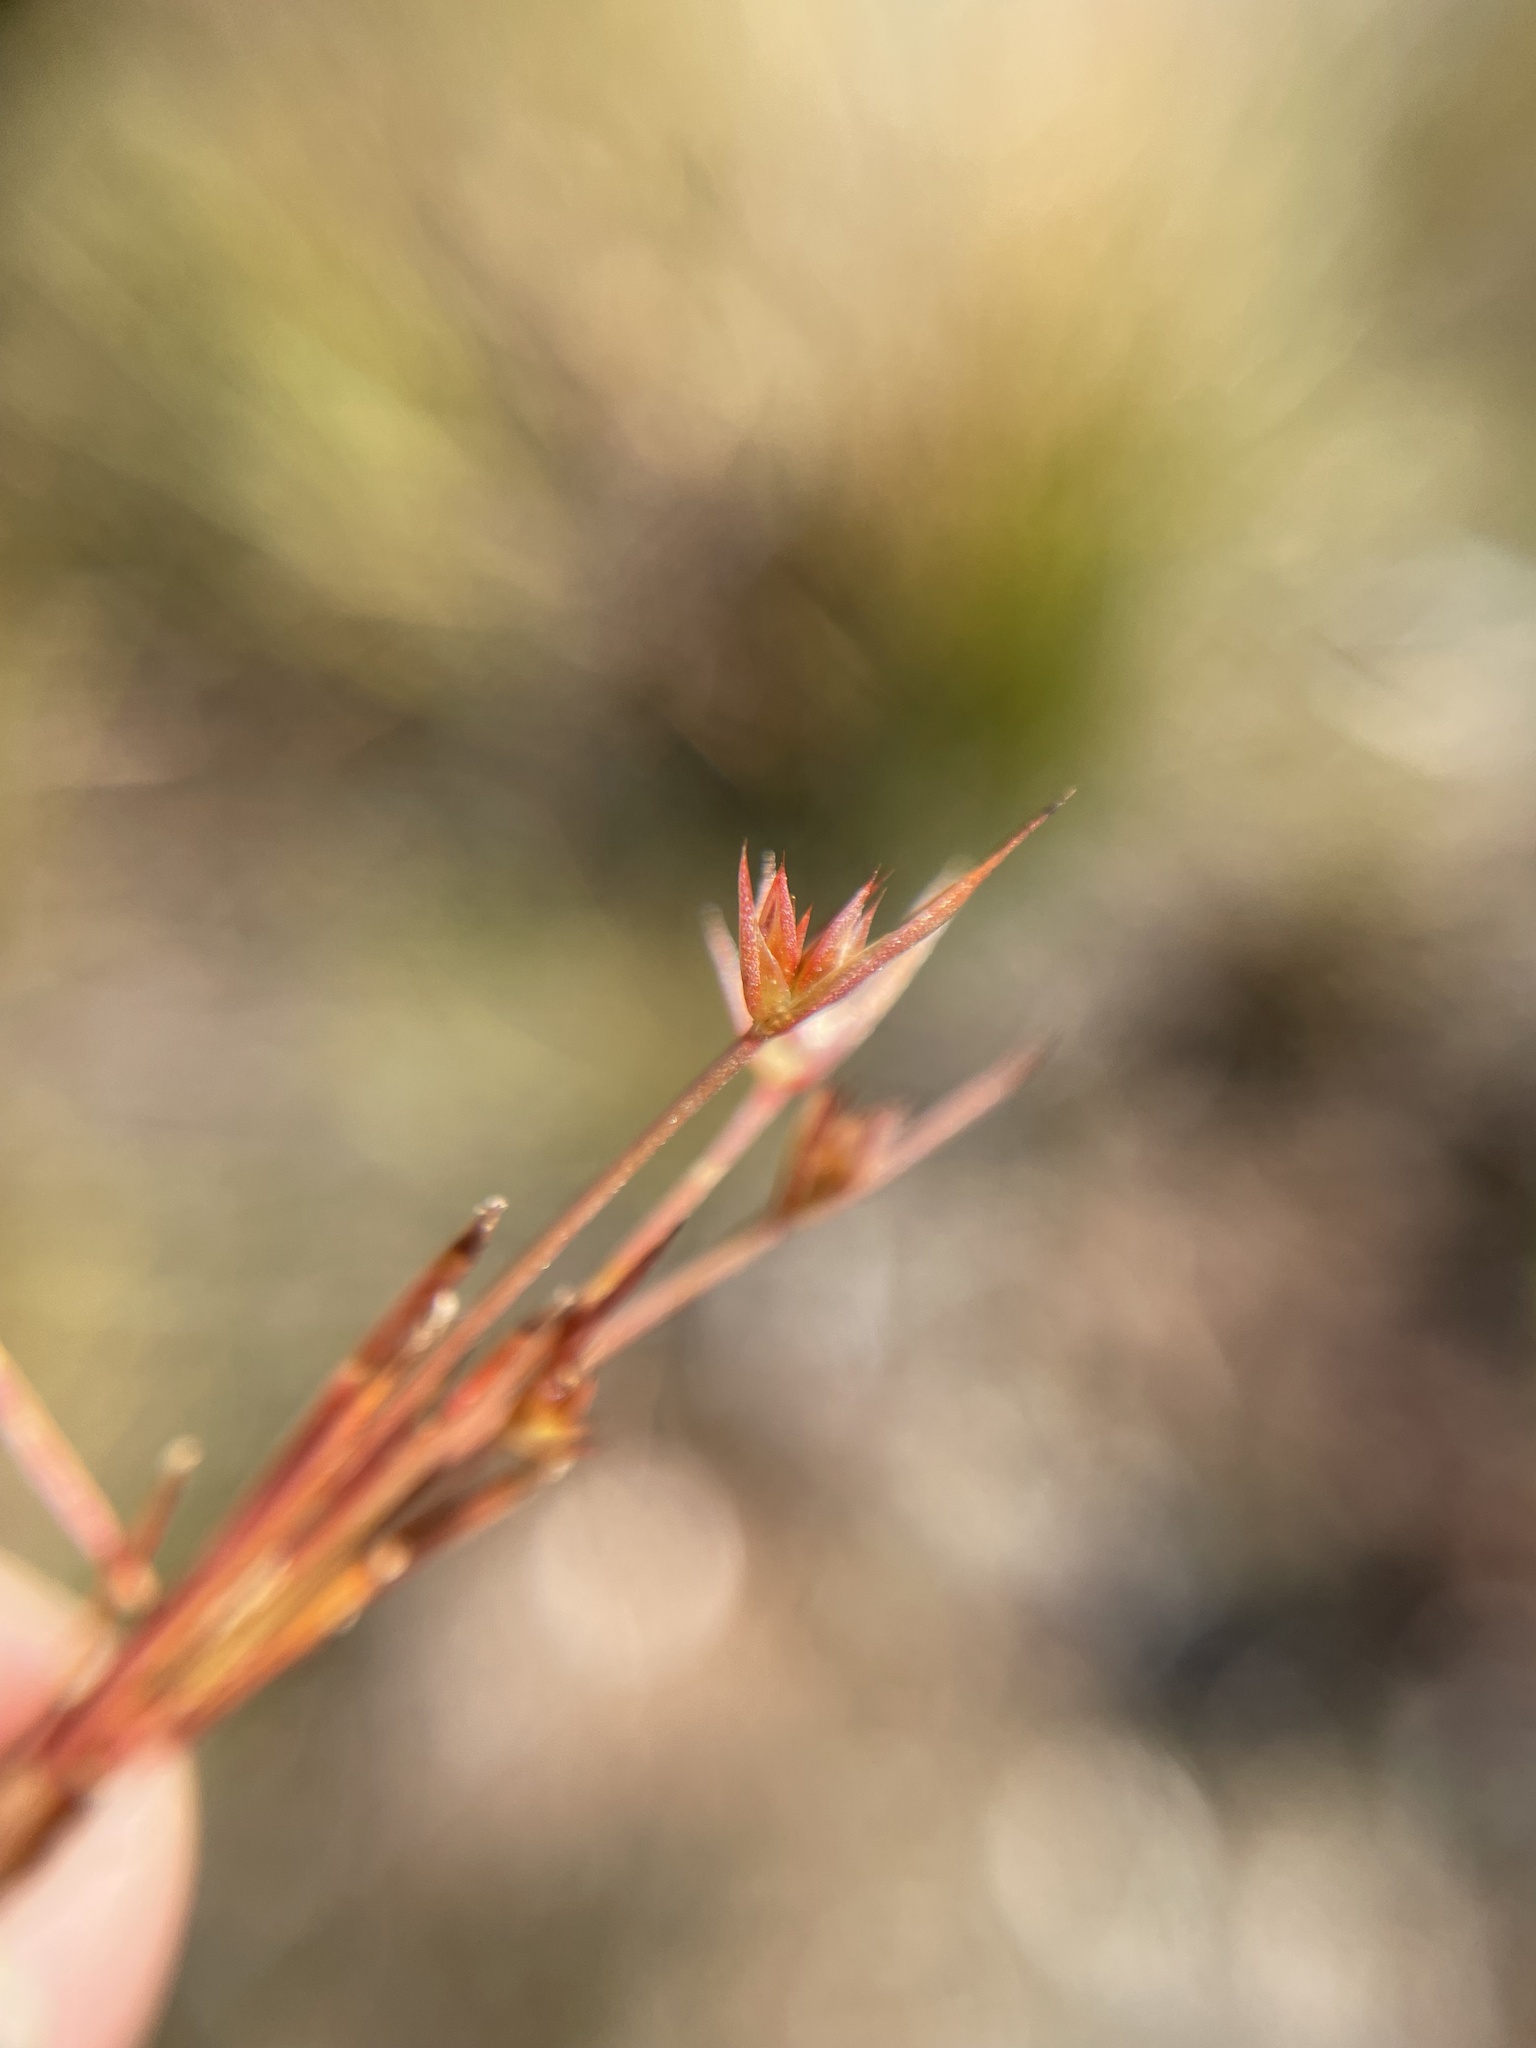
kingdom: Plantae
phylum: Tracheophyta
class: Liliopsida
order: Poales
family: Juncaceae
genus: Juncus
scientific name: Juncus capitatus
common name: Dwarf rush
